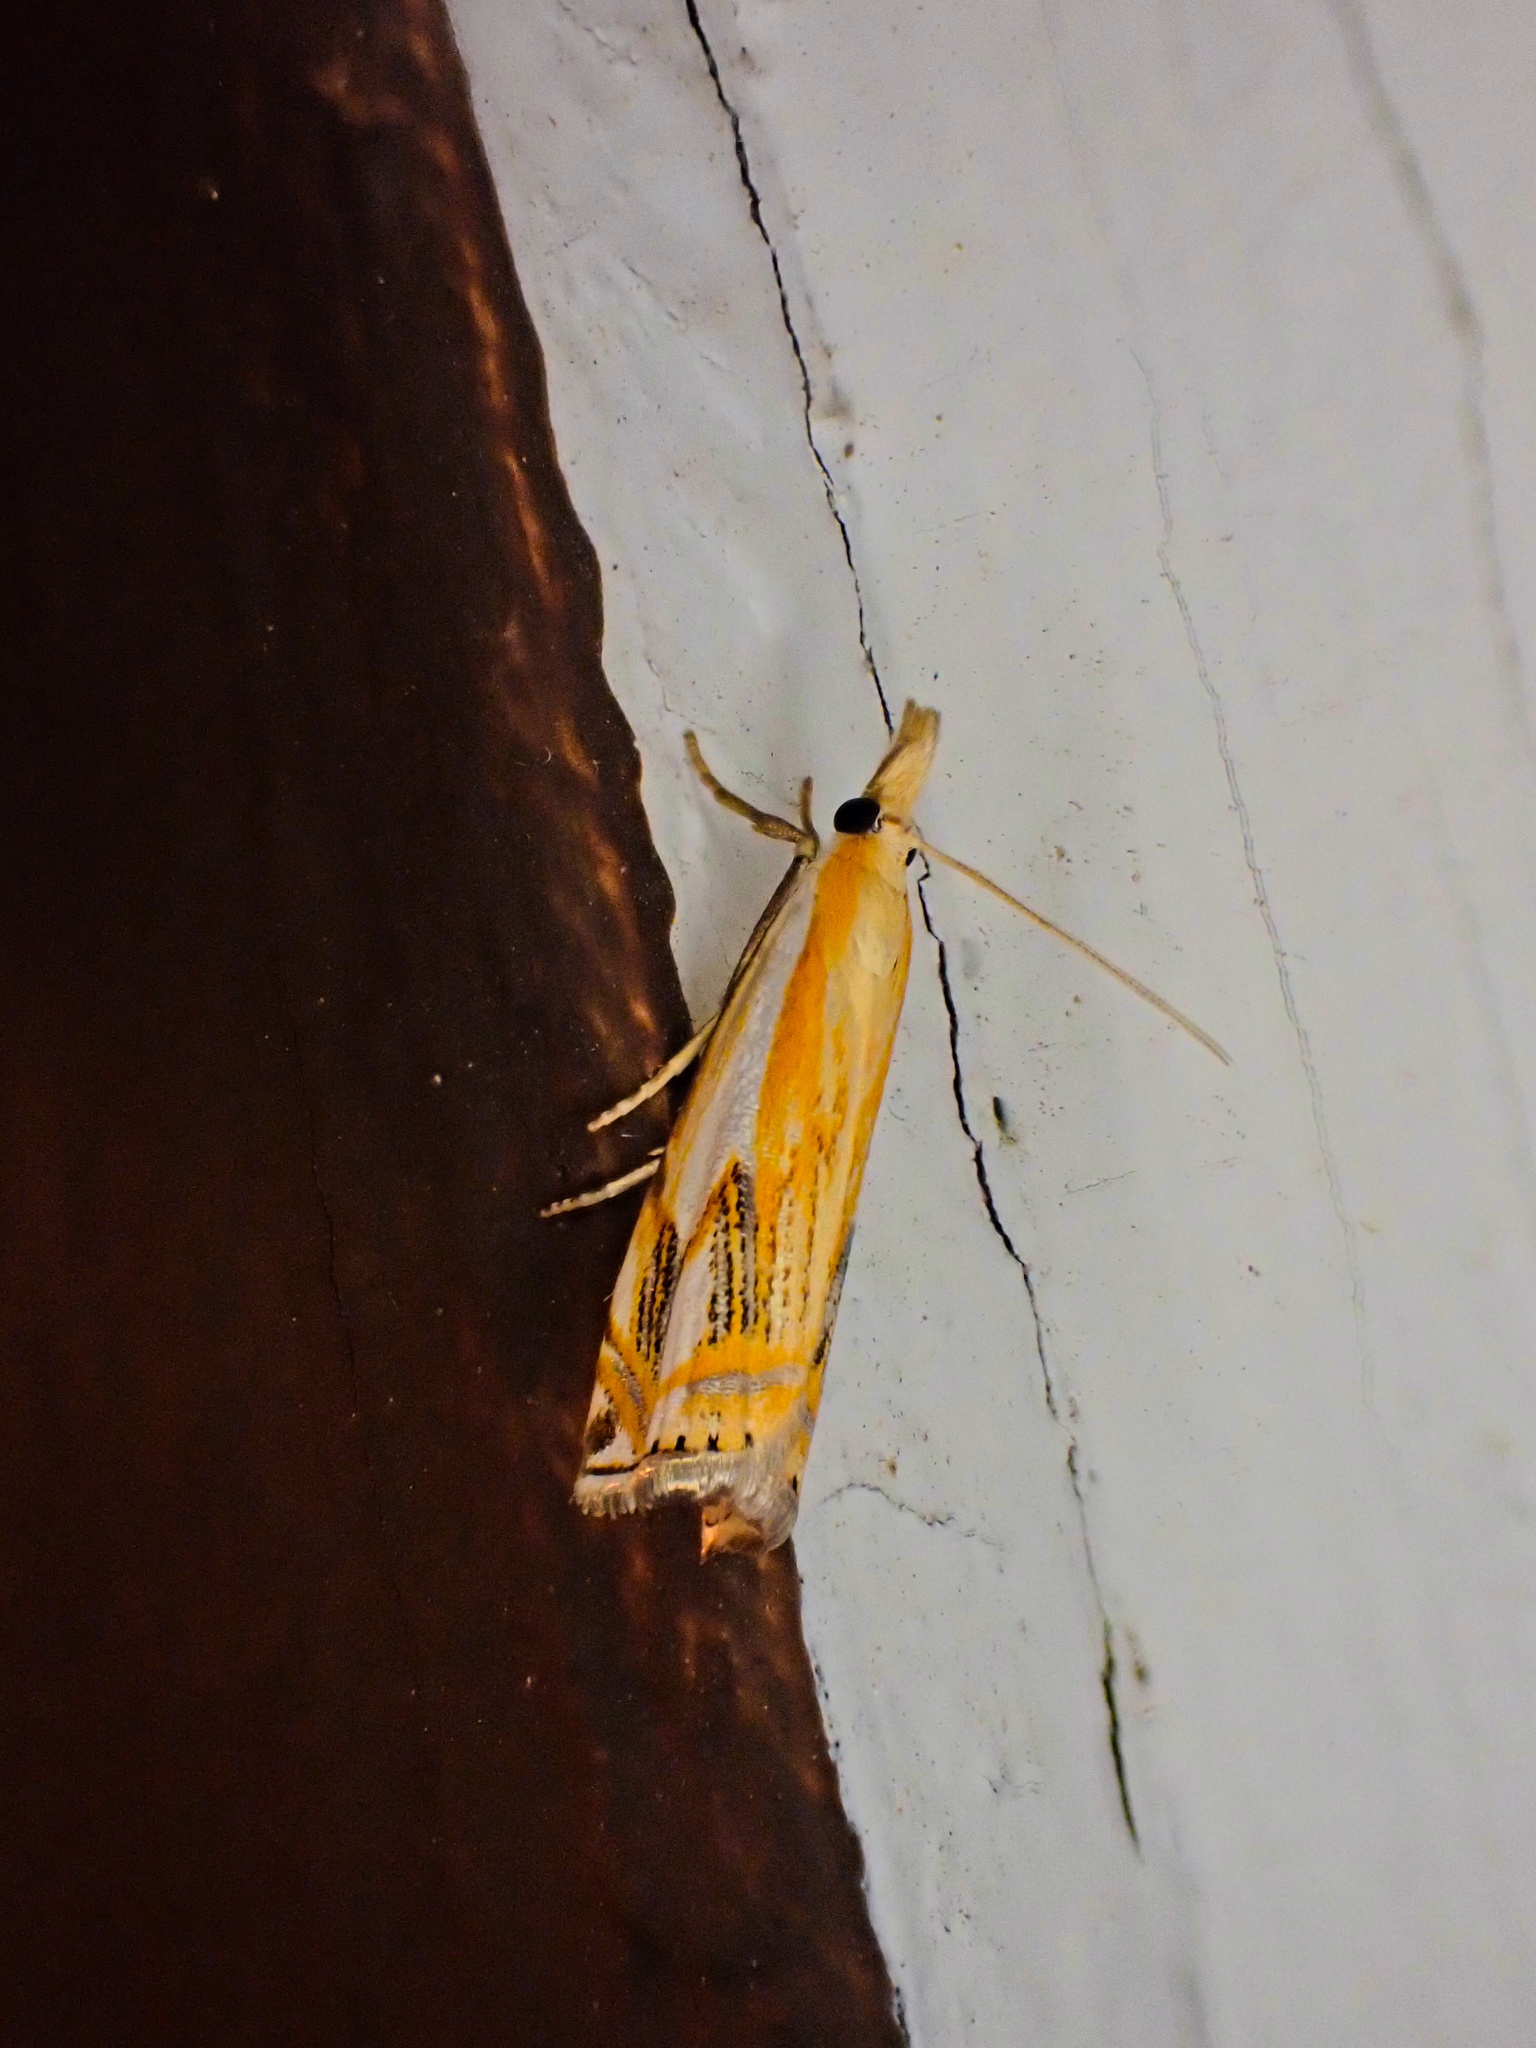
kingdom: Animalia
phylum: Arthropoda
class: Insecta
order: Lepidoptera
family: Crambidae
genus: Crambus
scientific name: Crambus agitatellus
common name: Double-banded grass-veneer
